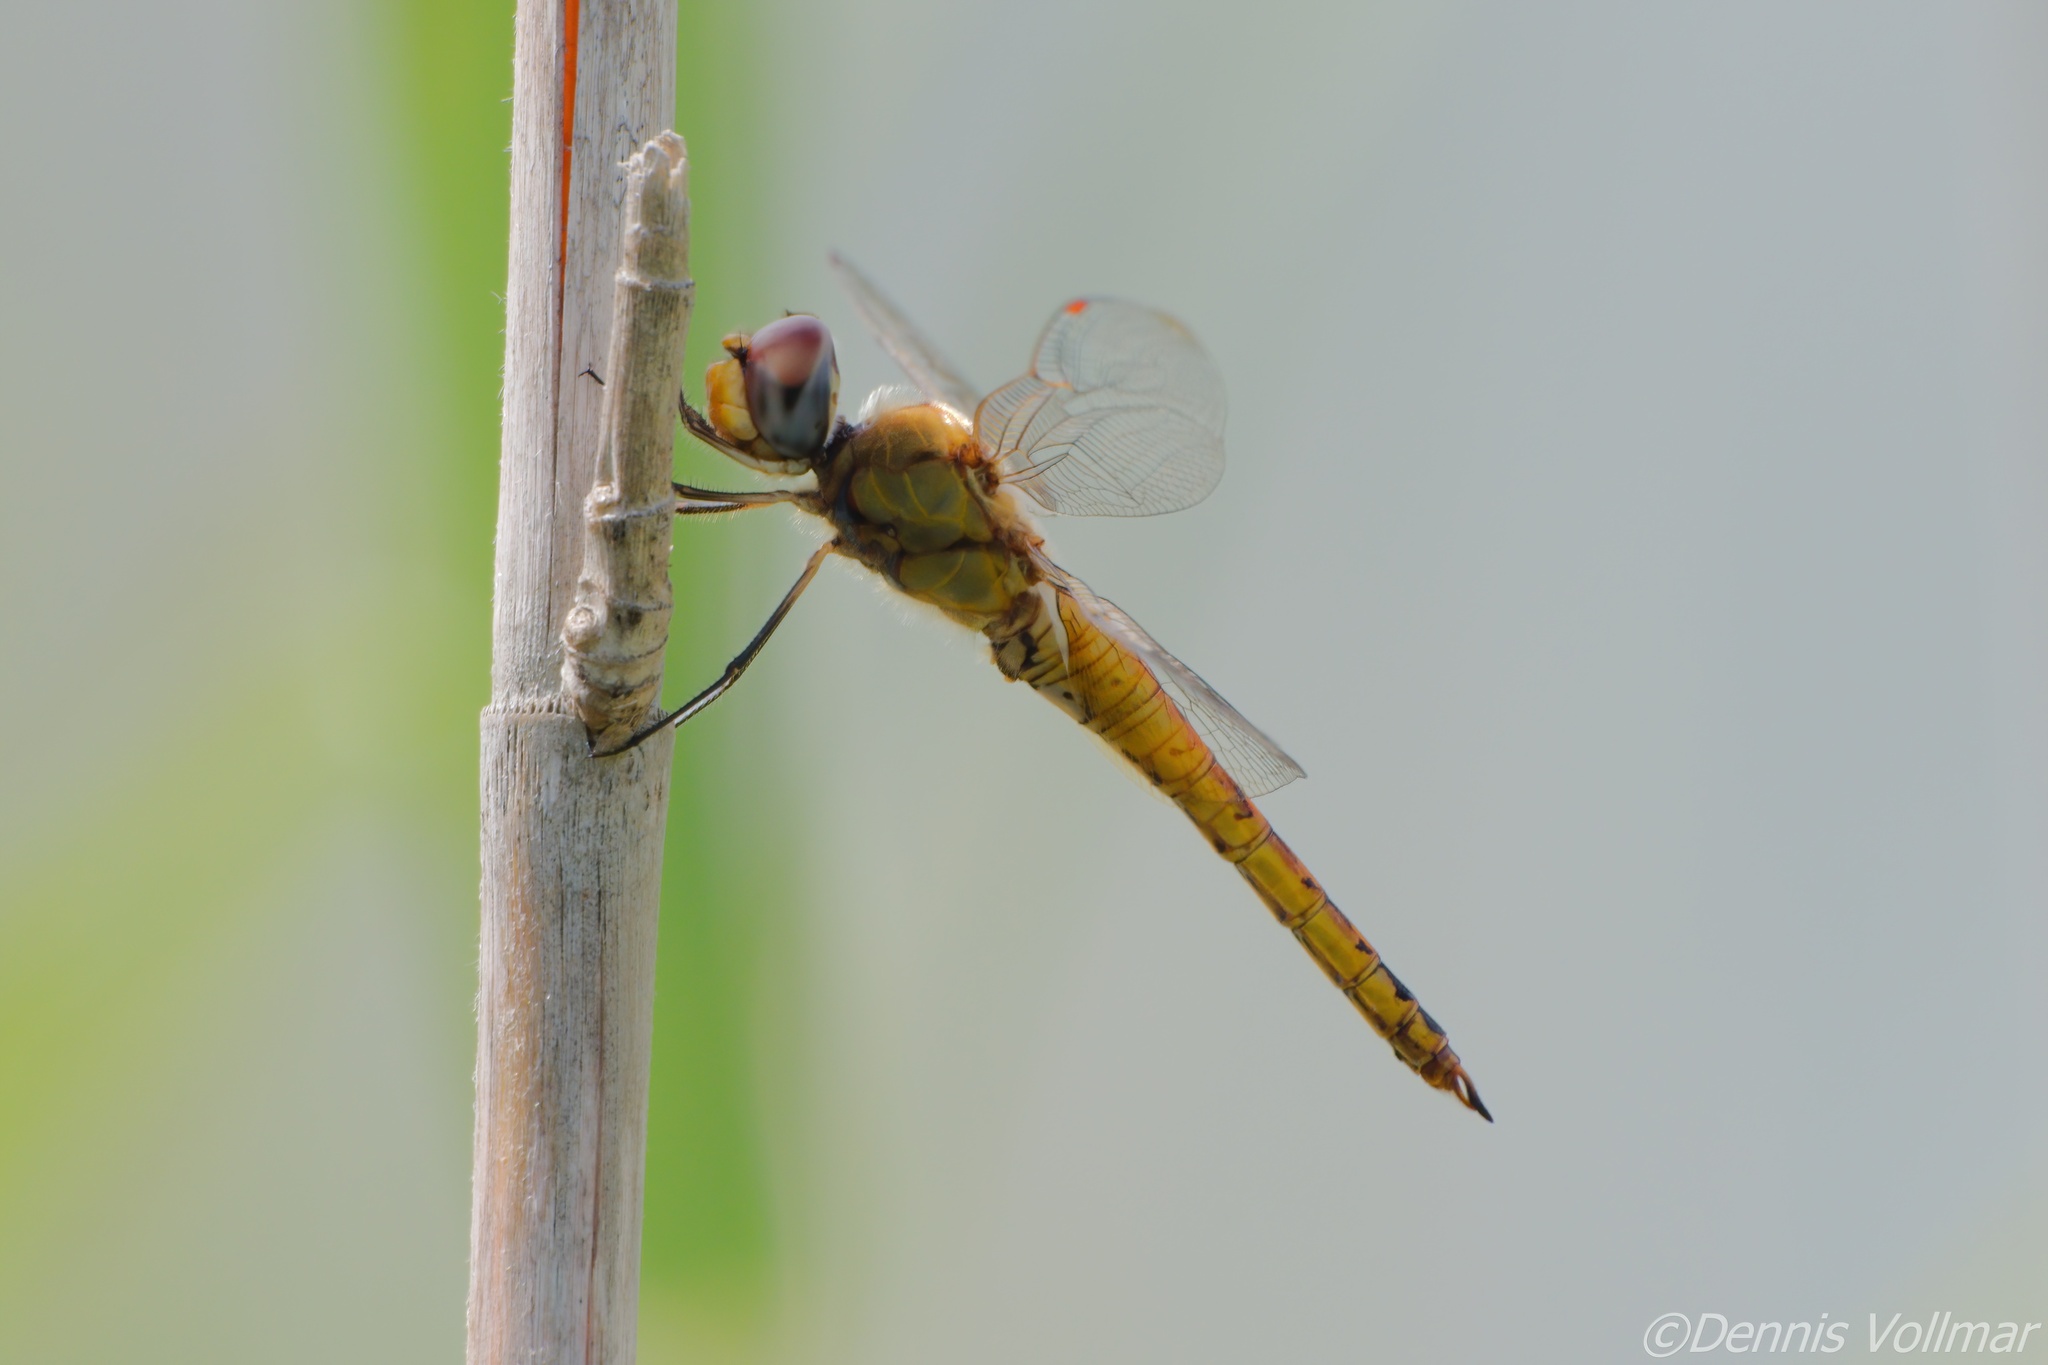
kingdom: Animalia
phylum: Arthropoda
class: Insecta
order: Odonata
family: Libellulidae
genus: Pantala
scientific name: Pantala flavescens
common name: Wandering glider
